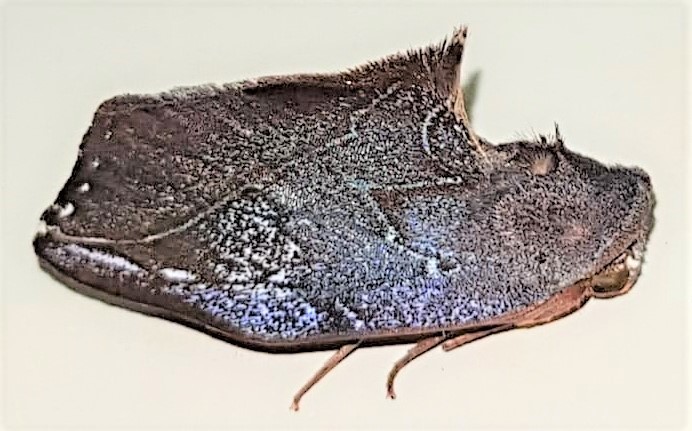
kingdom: Animalia
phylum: Arthropoda
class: Insecta
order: Lepidoptera
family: Notodontidae
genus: Maschane
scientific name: Maschane erratipennis
